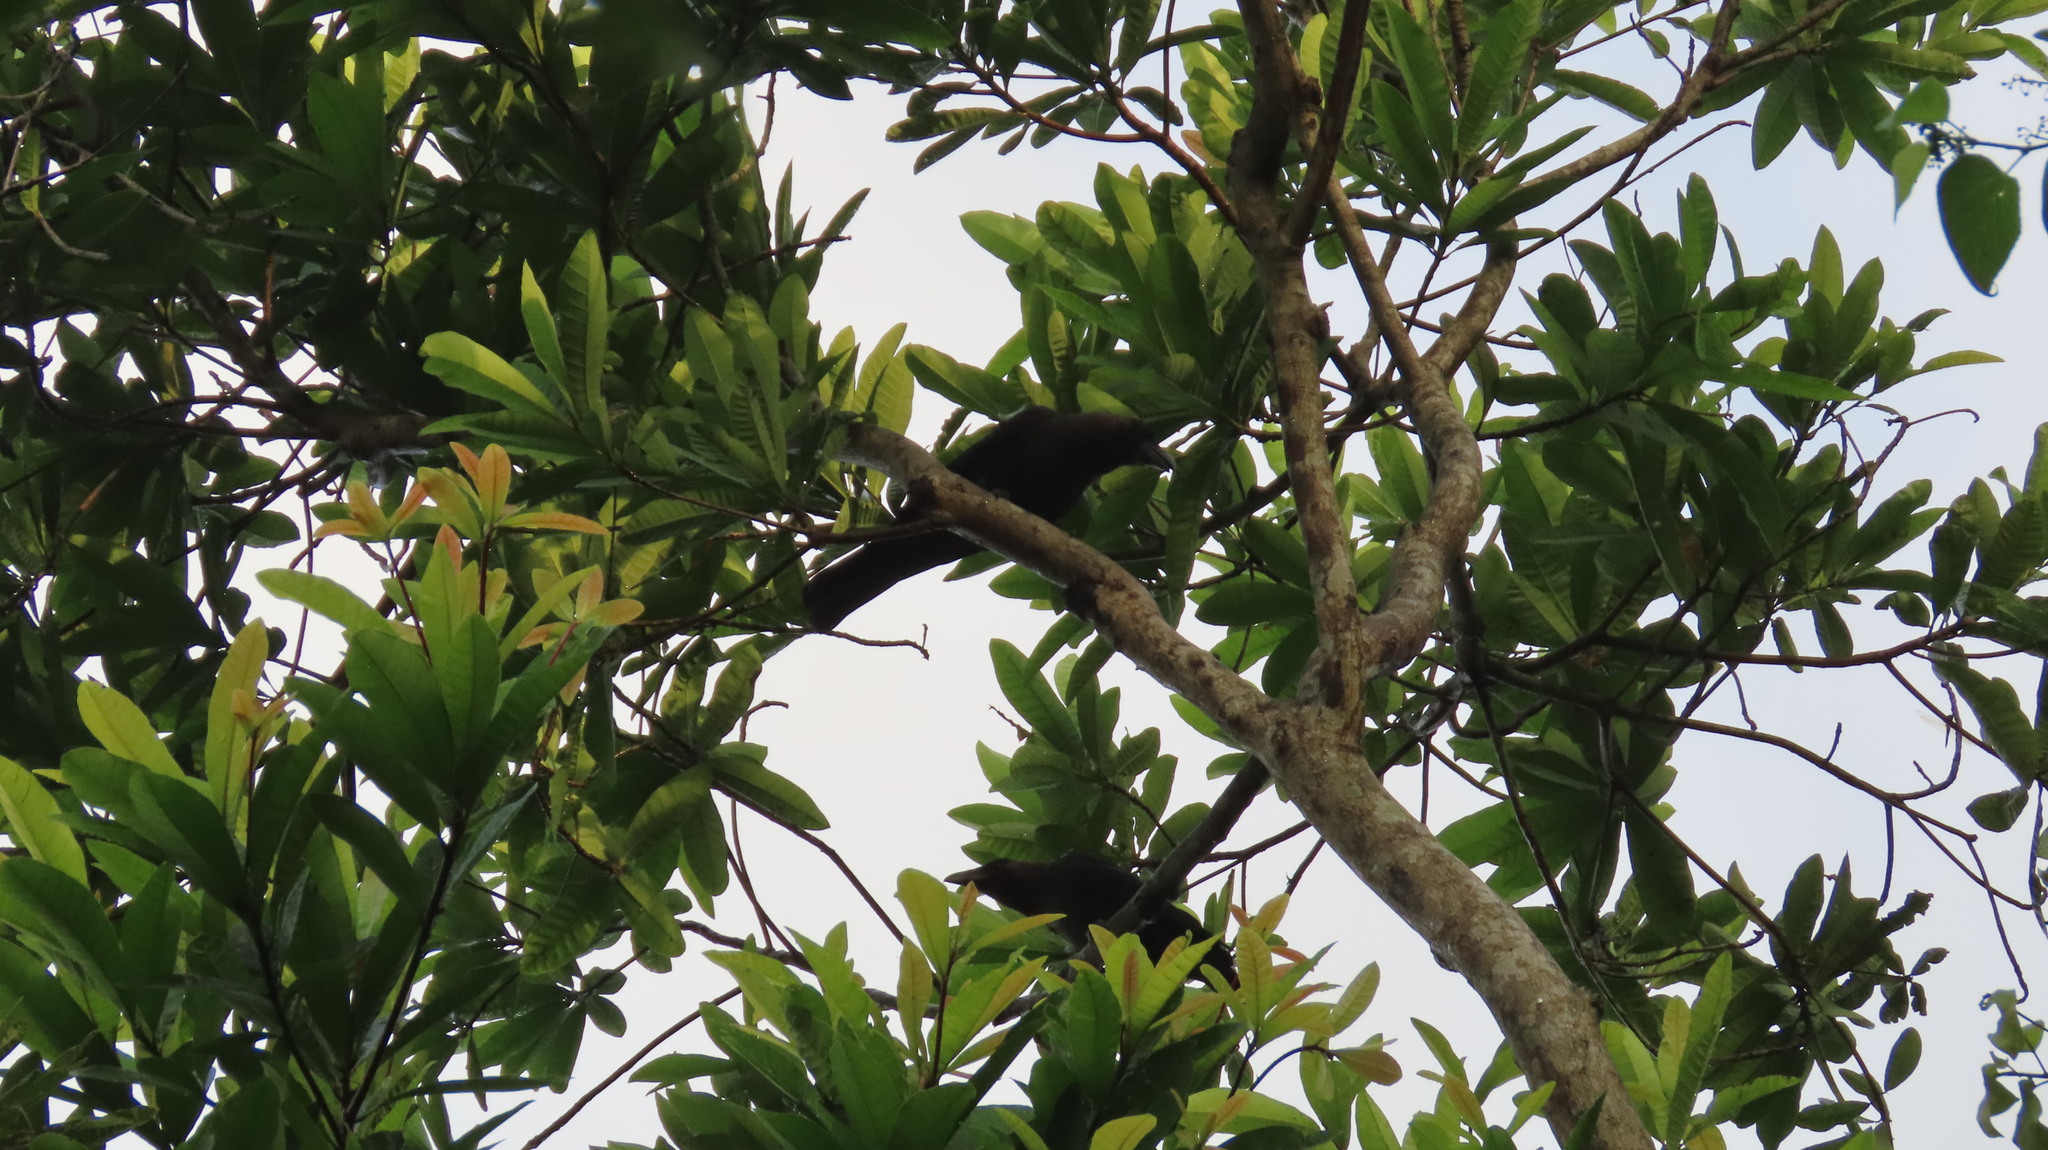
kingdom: Animalia
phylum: Chordata
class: Aves
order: Passeriformes
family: Corvidae
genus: Corvus
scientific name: Corvus splendens
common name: House crow
